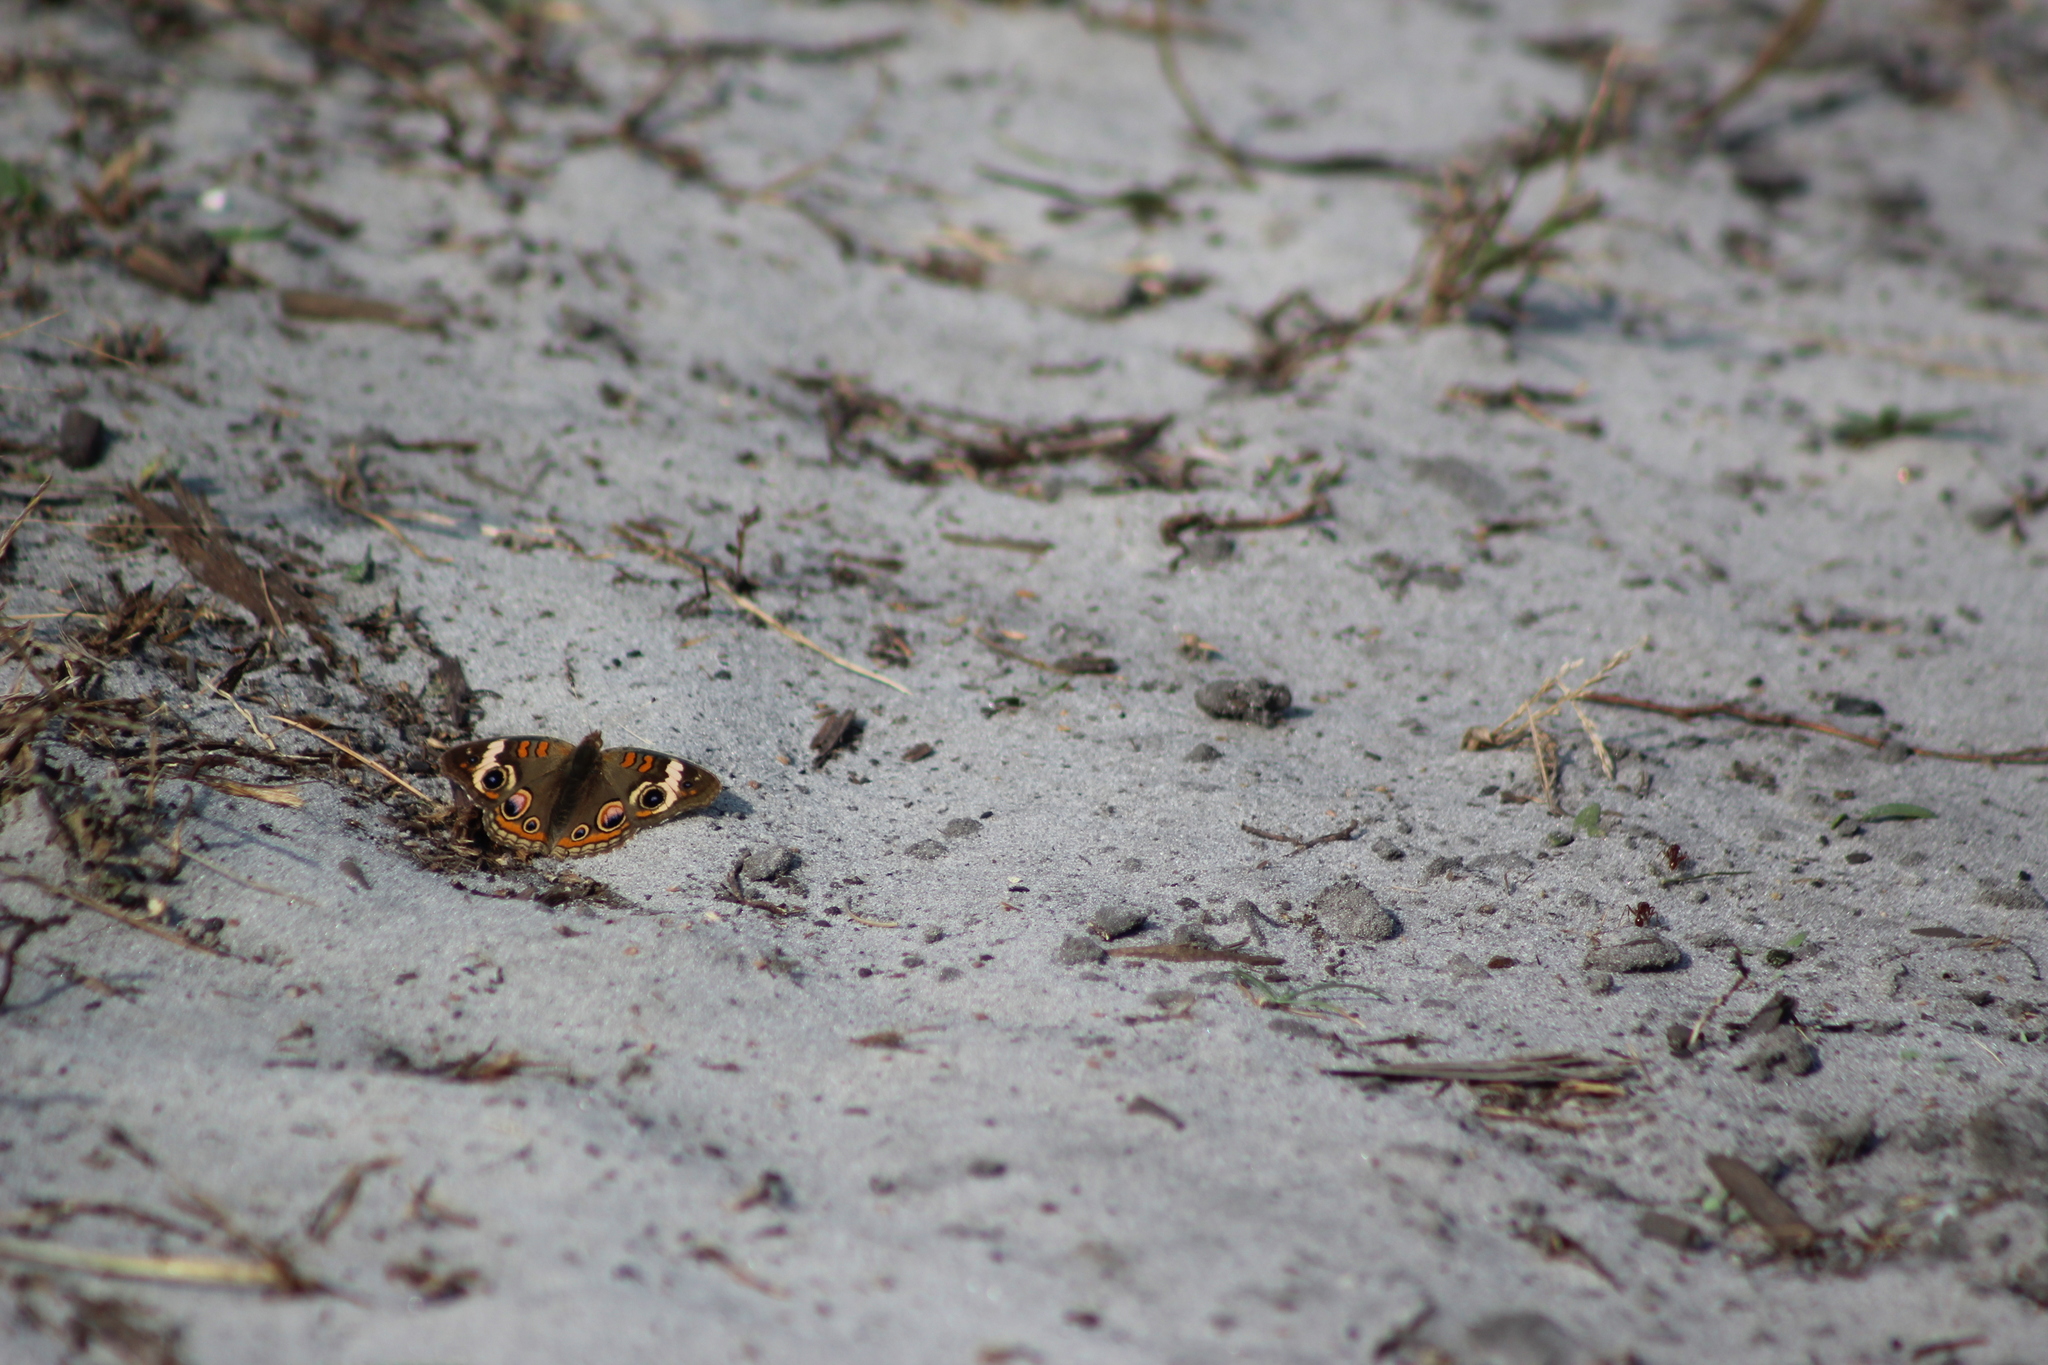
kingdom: Animalia
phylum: Arthropoda
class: Insecta
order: Lepidoptera
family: Nymphalidae
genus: Junonia
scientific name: Junonia coenia
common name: Common buckeye
